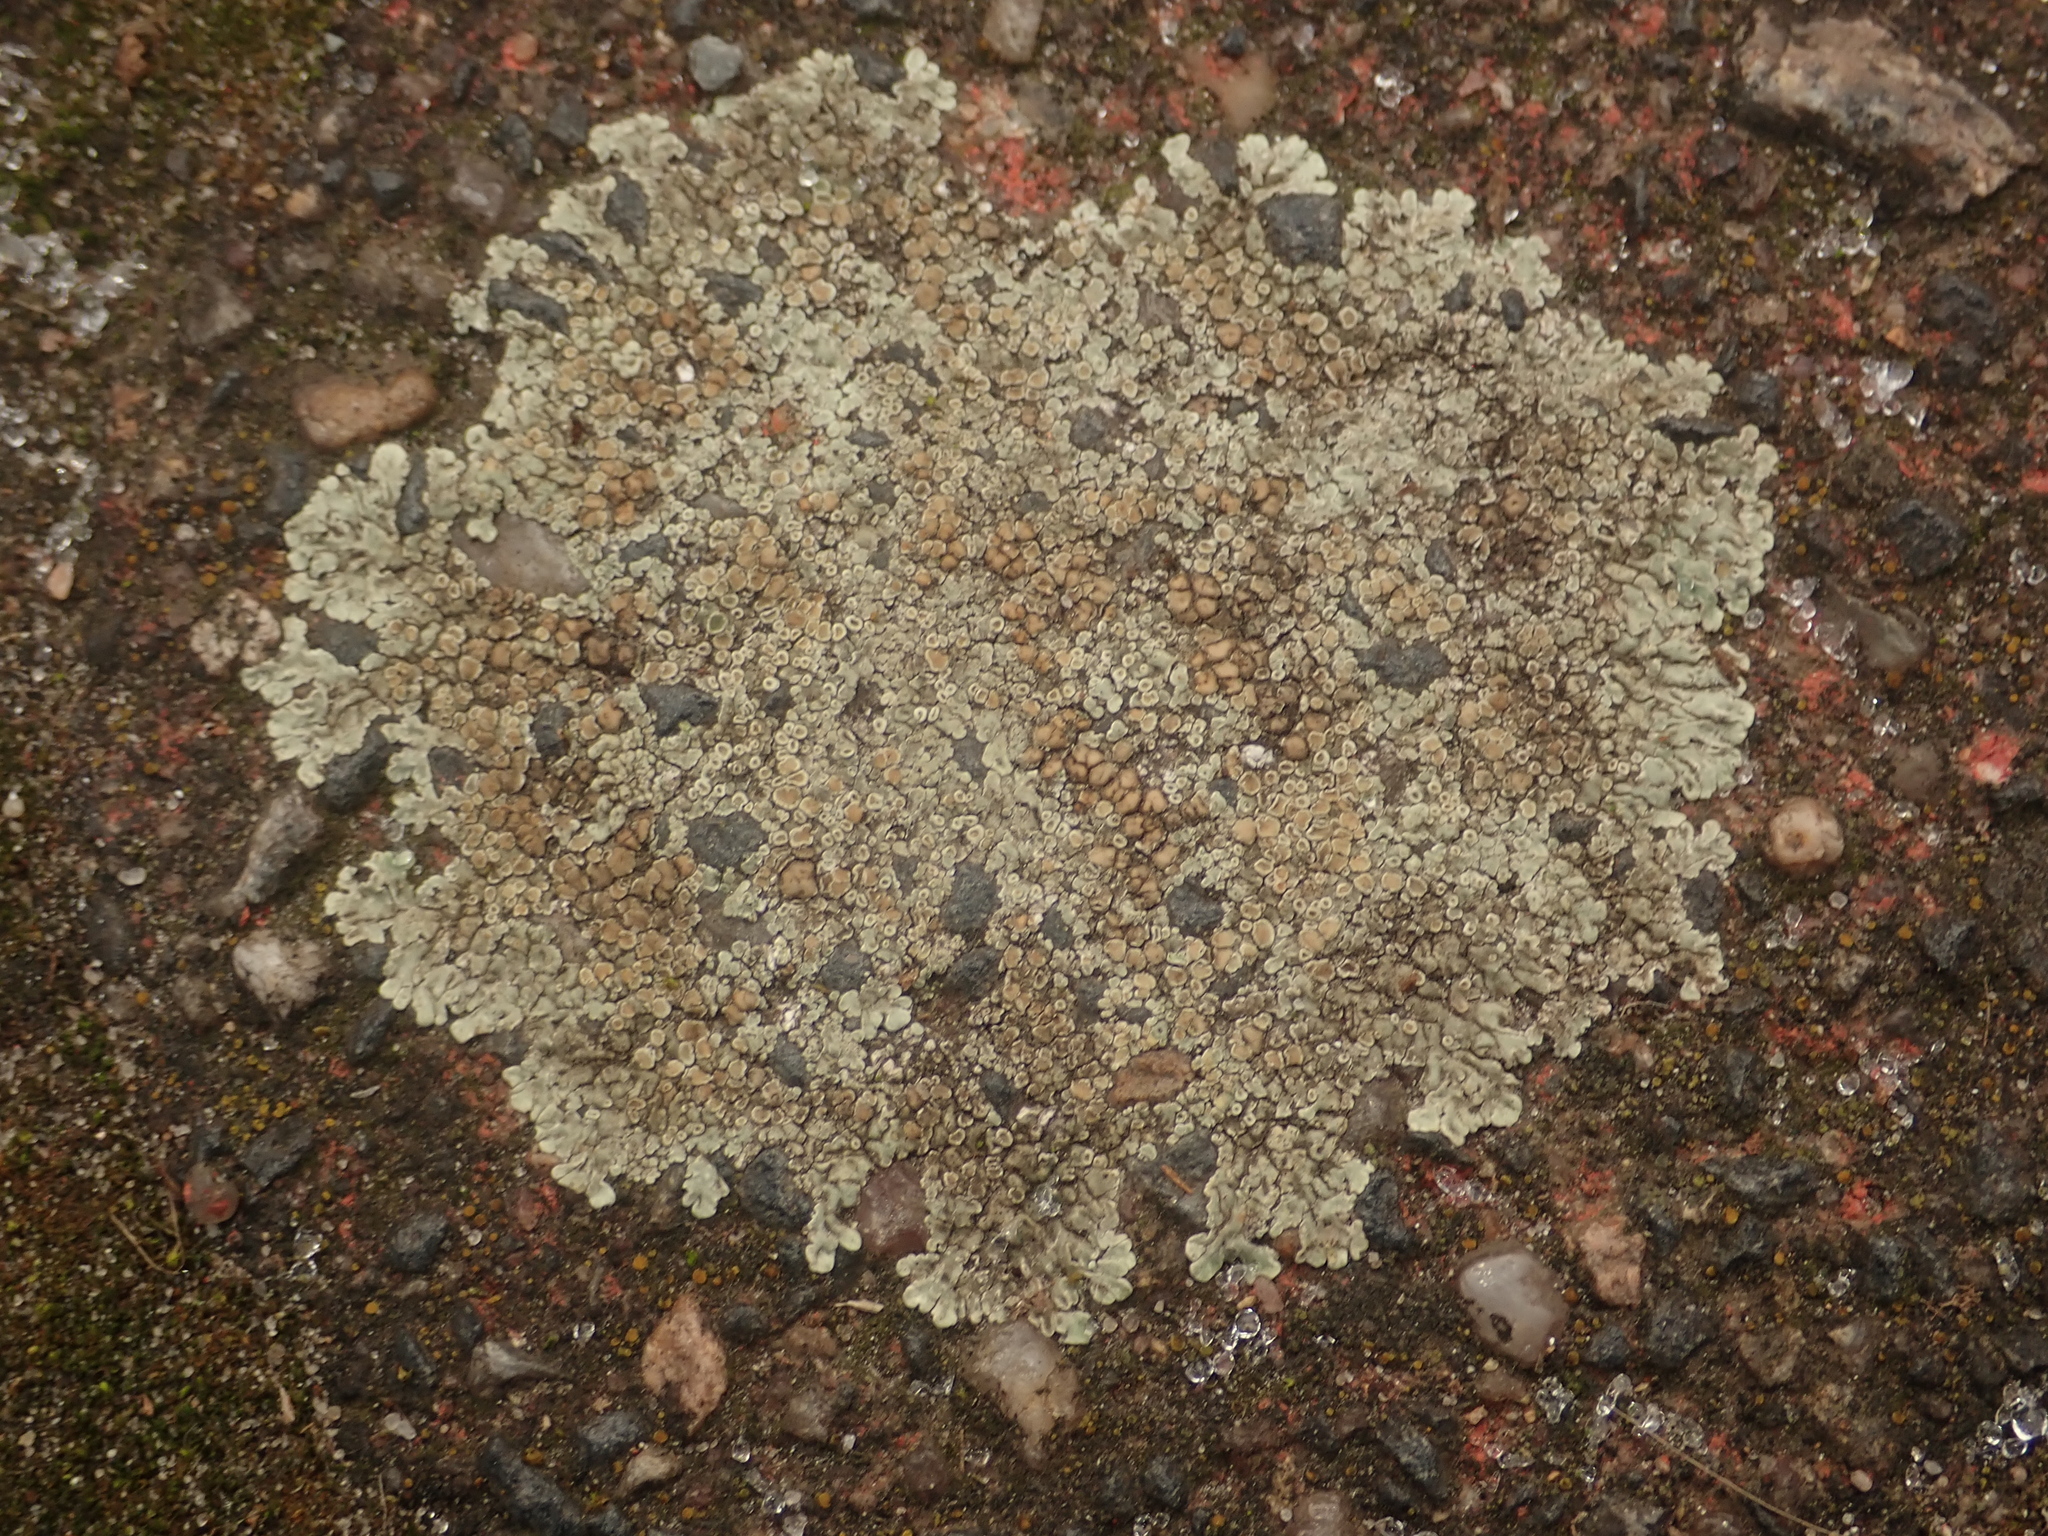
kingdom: Fungi
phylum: Ascomycota
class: Lecanoromycetes
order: Lecanorales
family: Lecanoraceae
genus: Protoparmeliopsis
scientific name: Protoparmeliopsis muralis
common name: Stonewall rim lichen
